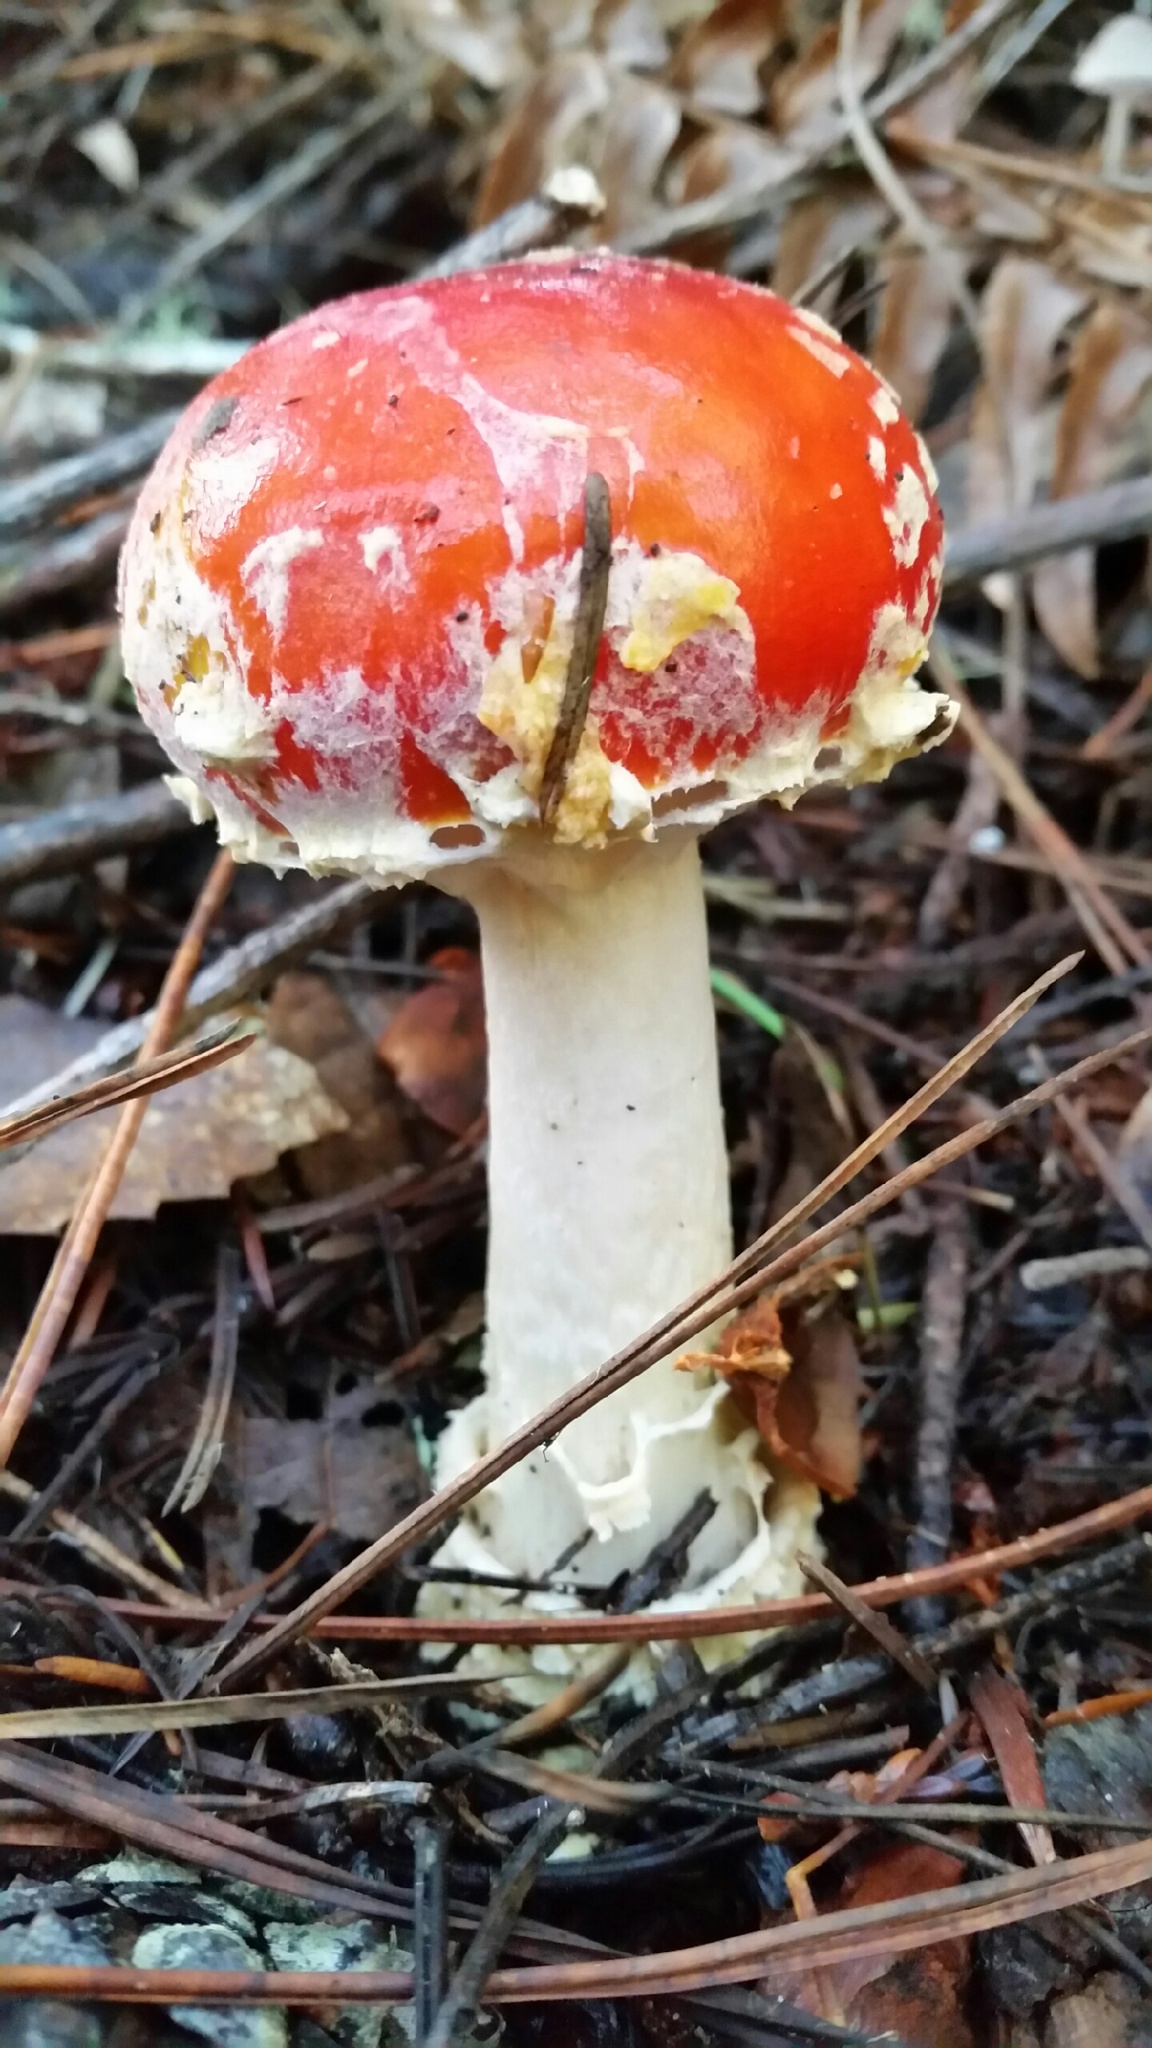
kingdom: Fungi
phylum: Basidiomycota
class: Agaricomycetes
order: Agaricales
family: Amanitaceae
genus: Amanita
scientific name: Amanita muscaria
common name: Fly agaric
